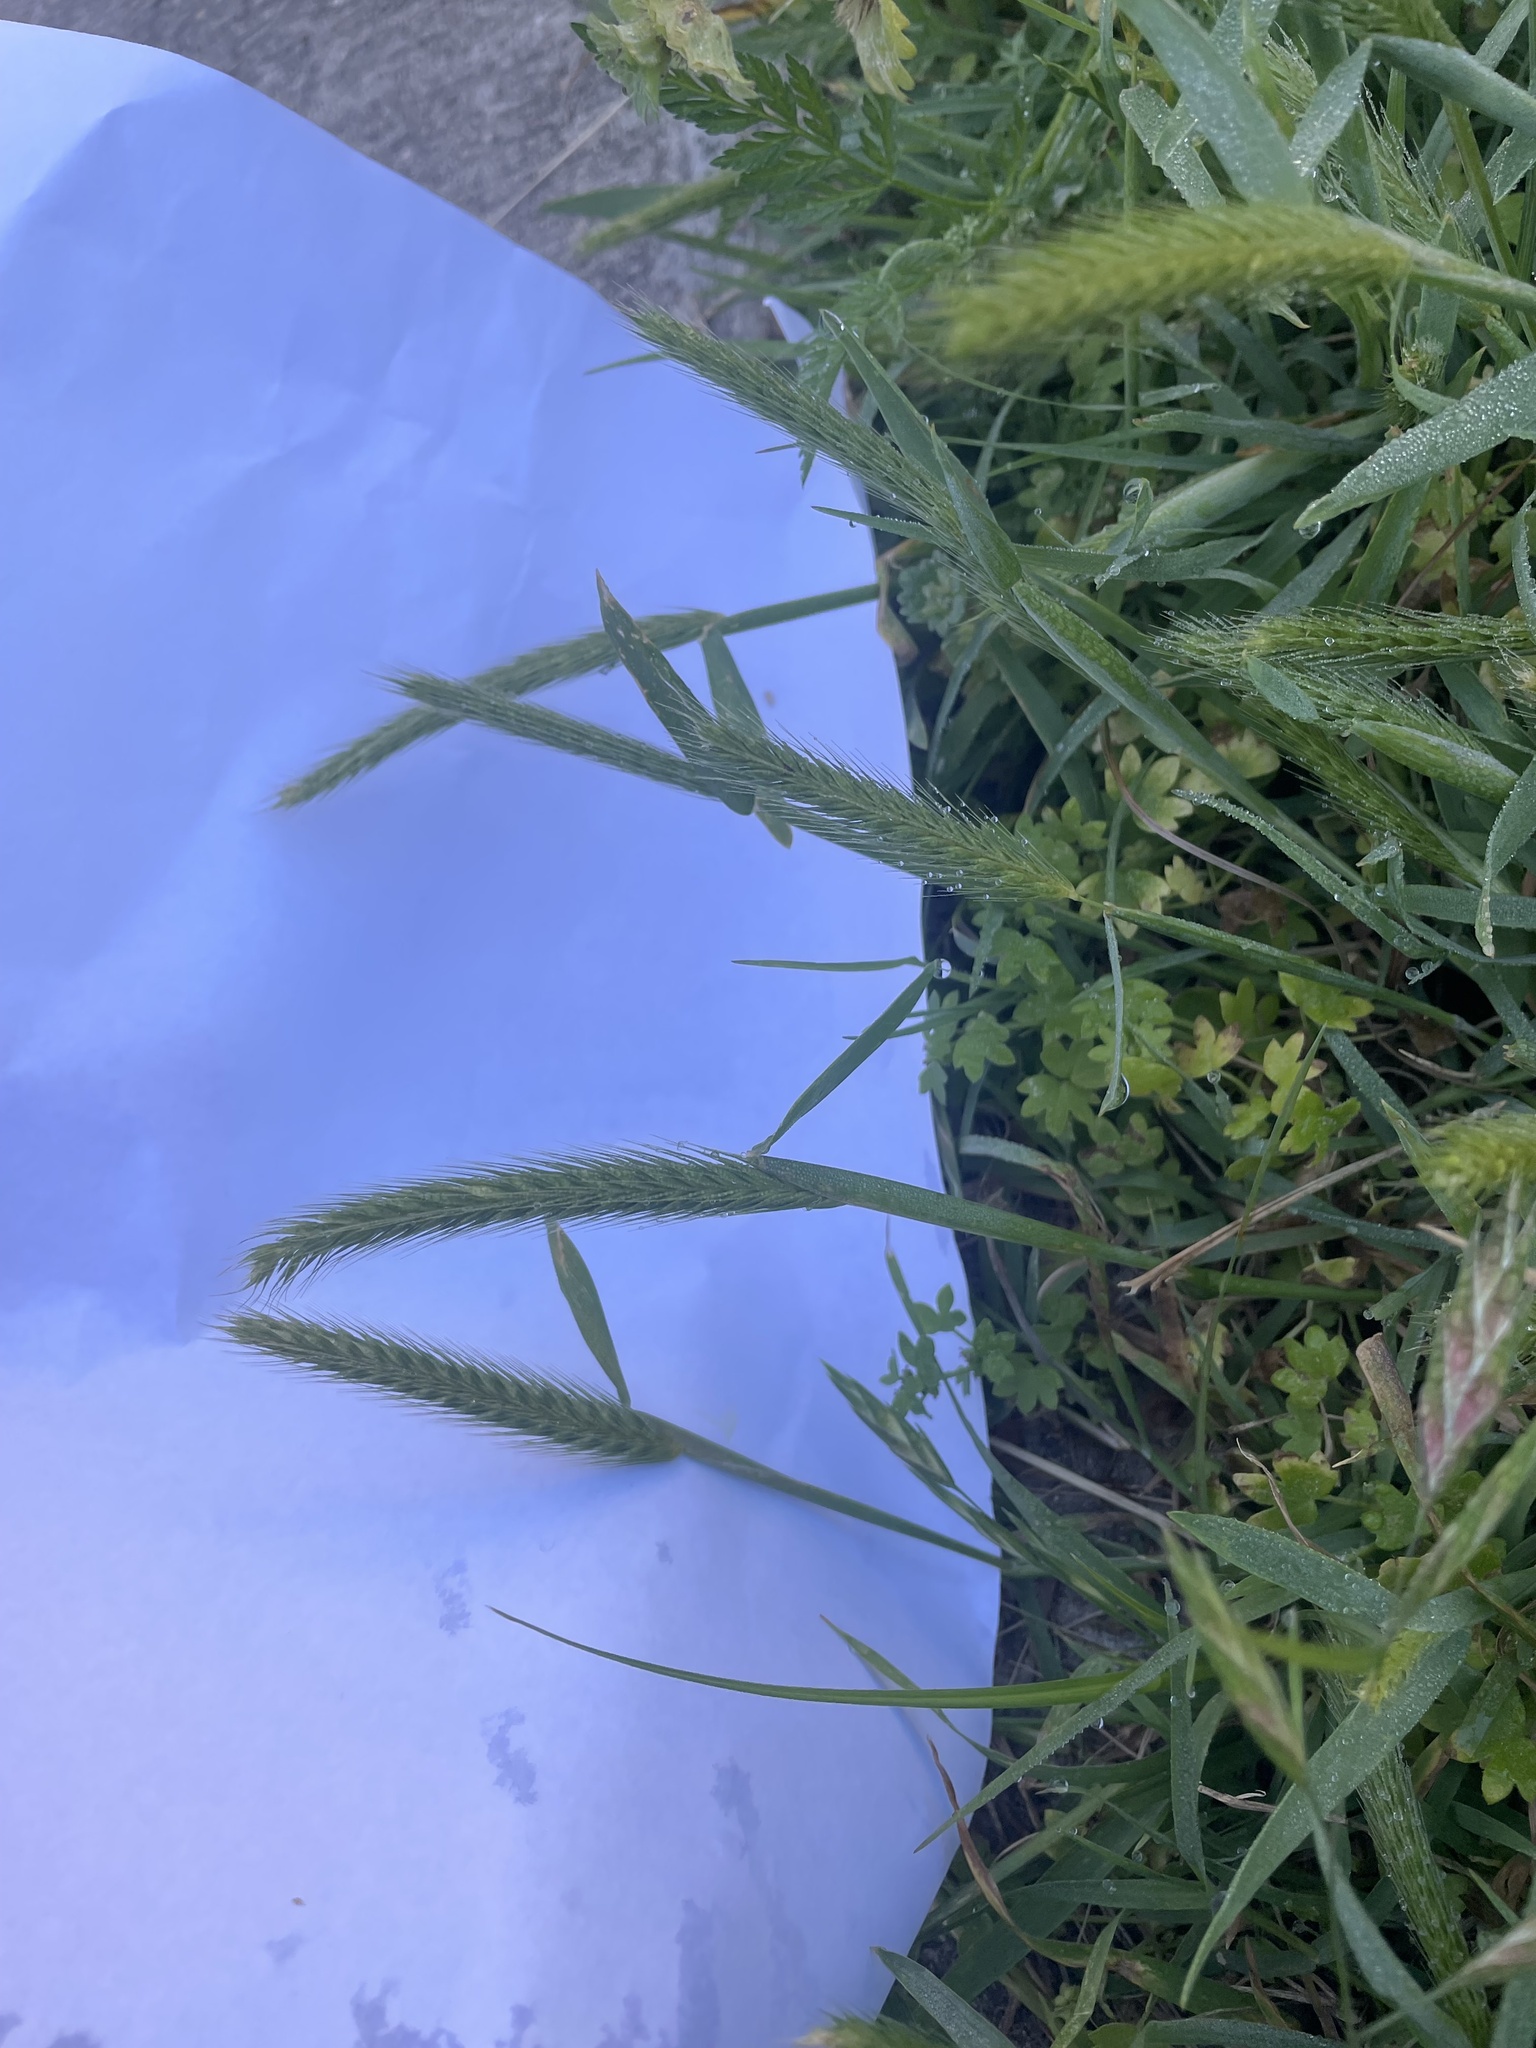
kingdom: Plantae
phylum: Tracheophyta
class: Liliopsida
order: Poales
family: Poaceae
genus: Hordeum
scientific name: Hordeum pusillum
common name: Little barley
